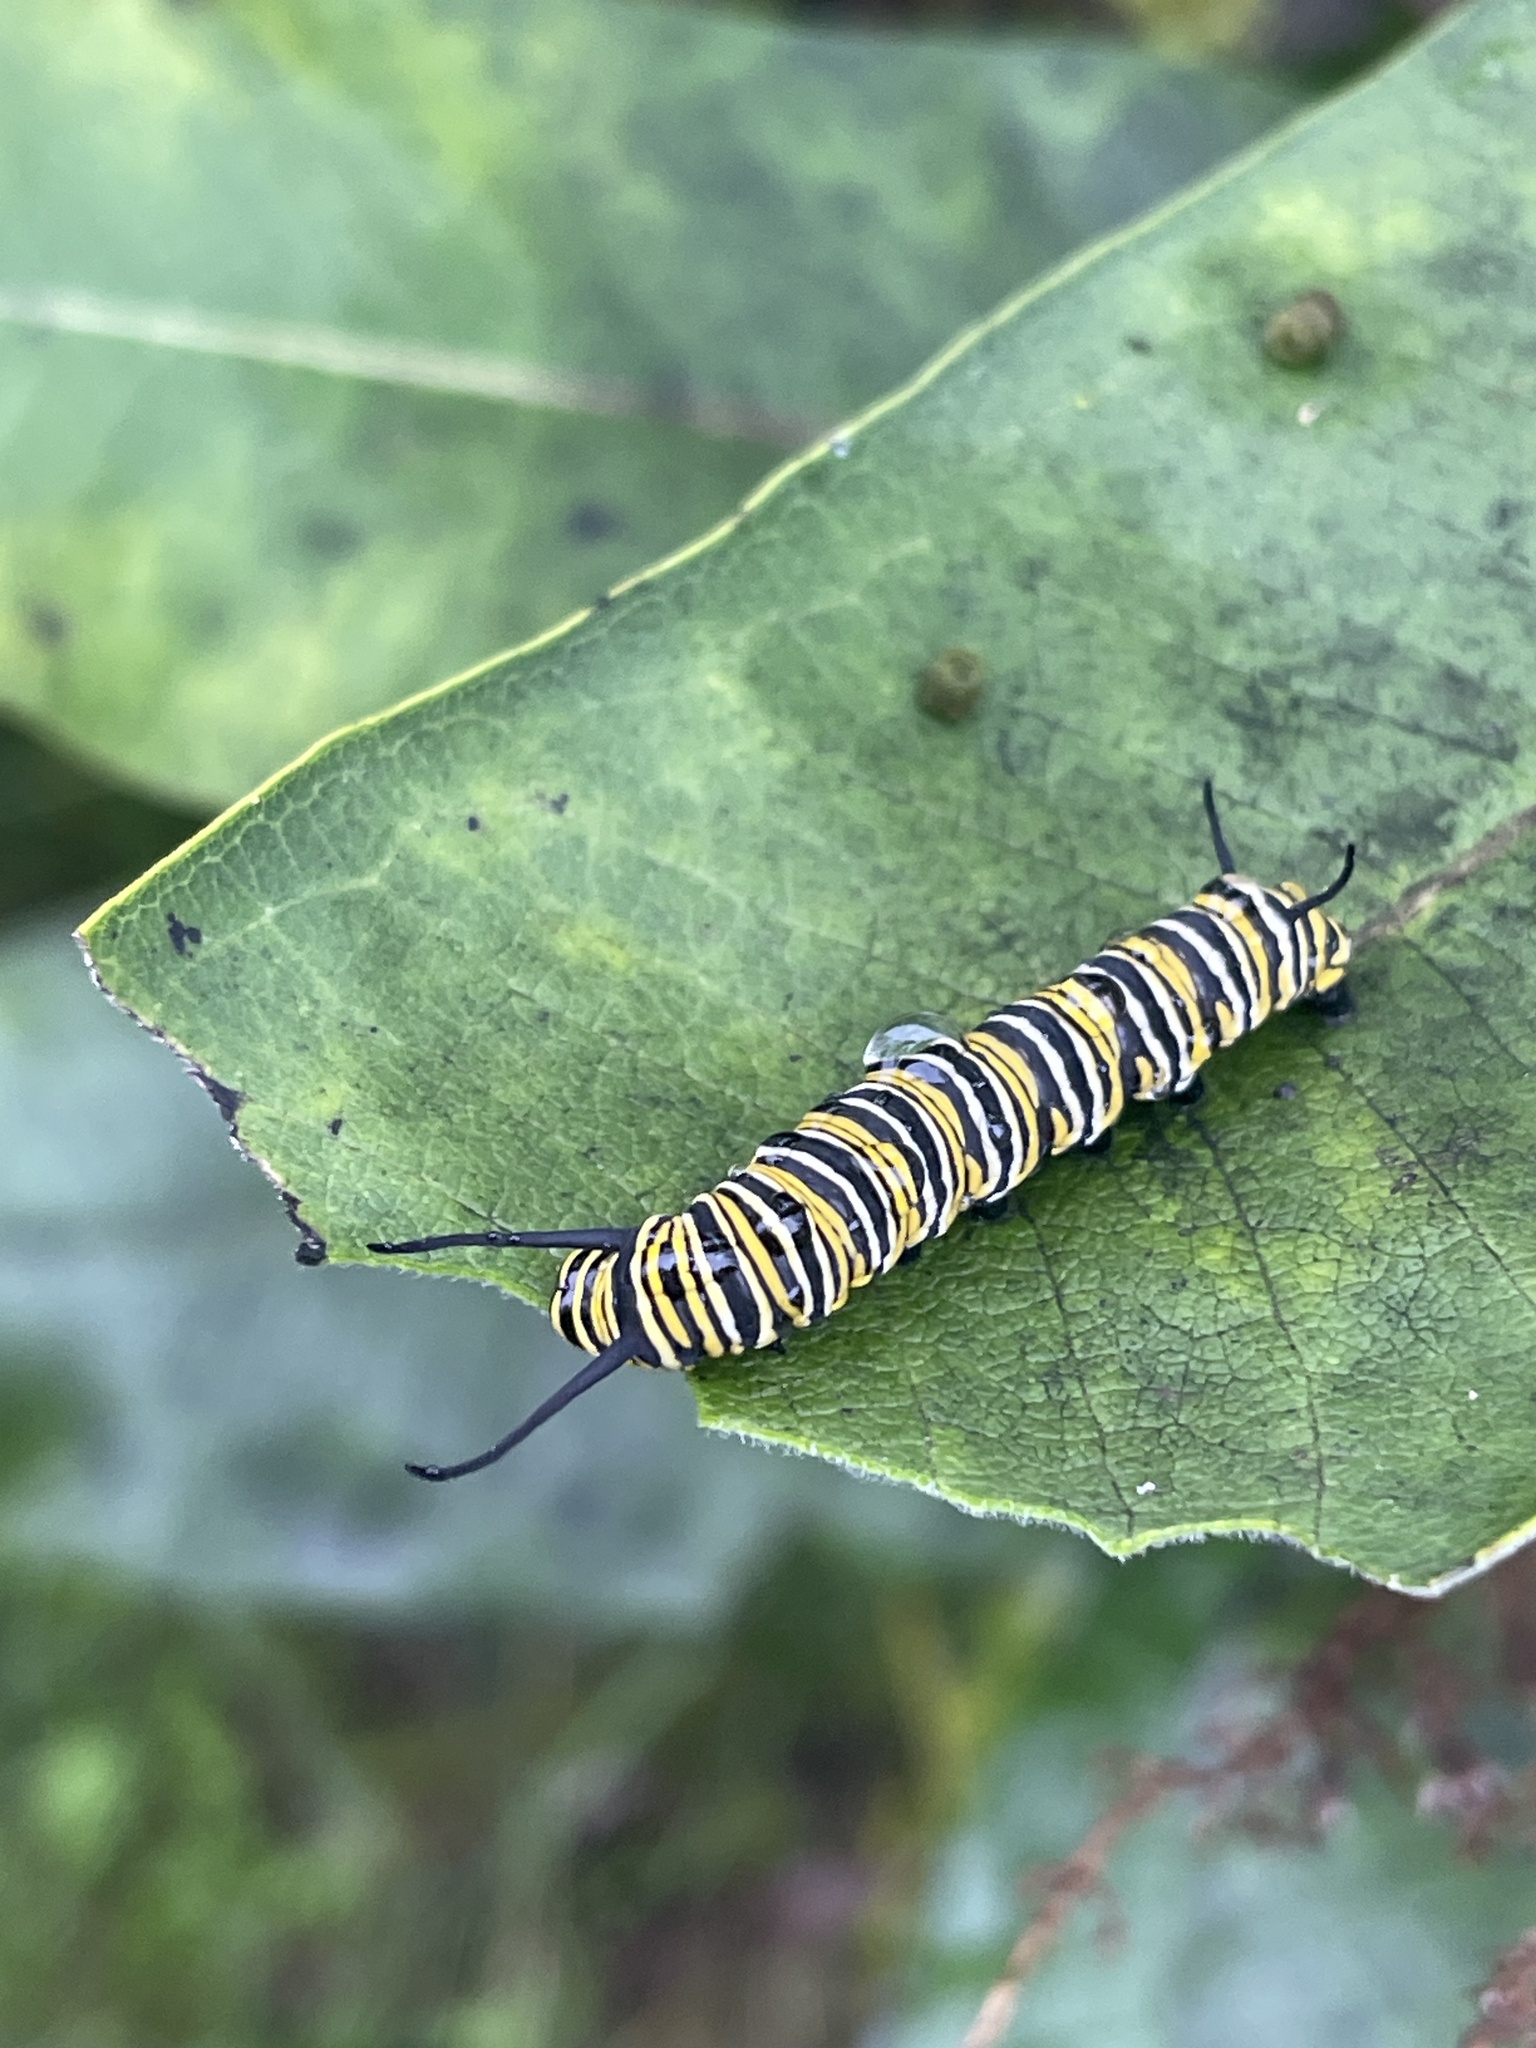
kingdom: Animalia
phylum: Arthropoda
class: Insecta
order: Lepidoptera
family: Nymphalidae
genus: Danaus
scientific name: Danaus plexippus
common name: Monarch
